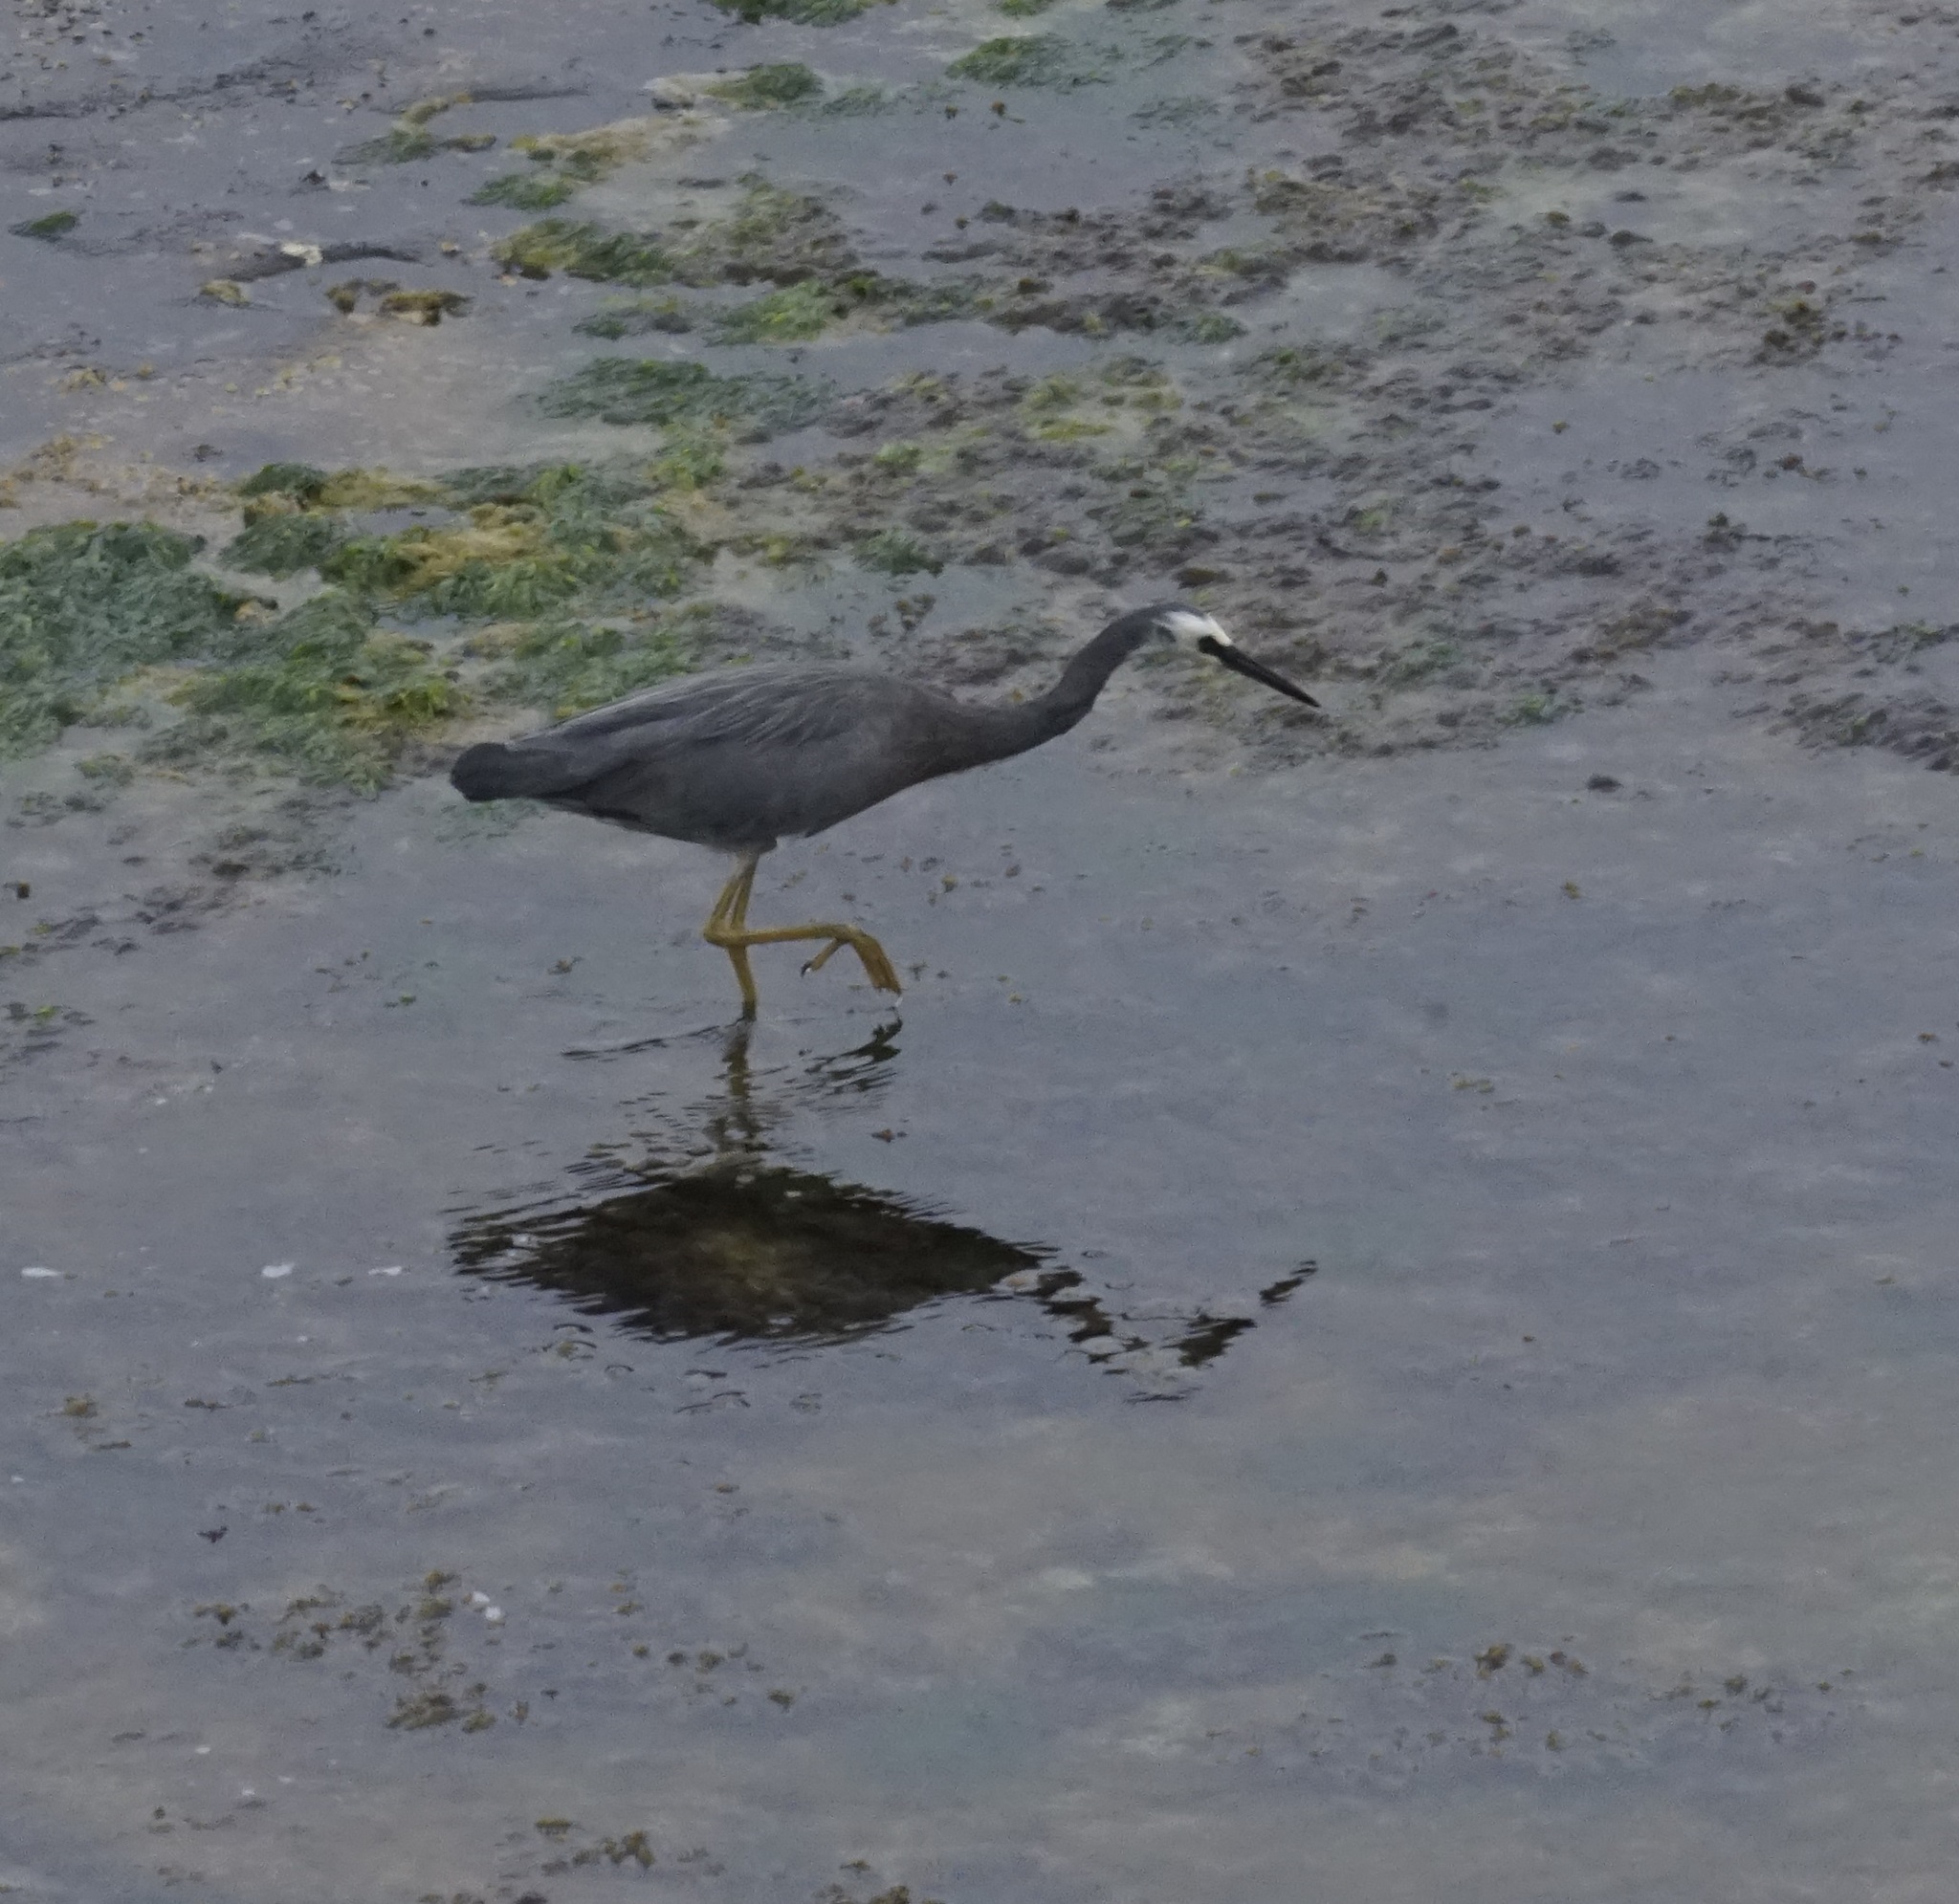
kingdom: Animalia
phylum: Chordata
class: Aves
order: Pelecaniformes
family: Ardeidae
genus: Egretta
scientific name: Egretta novaehollandiae
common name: White-faced heron
